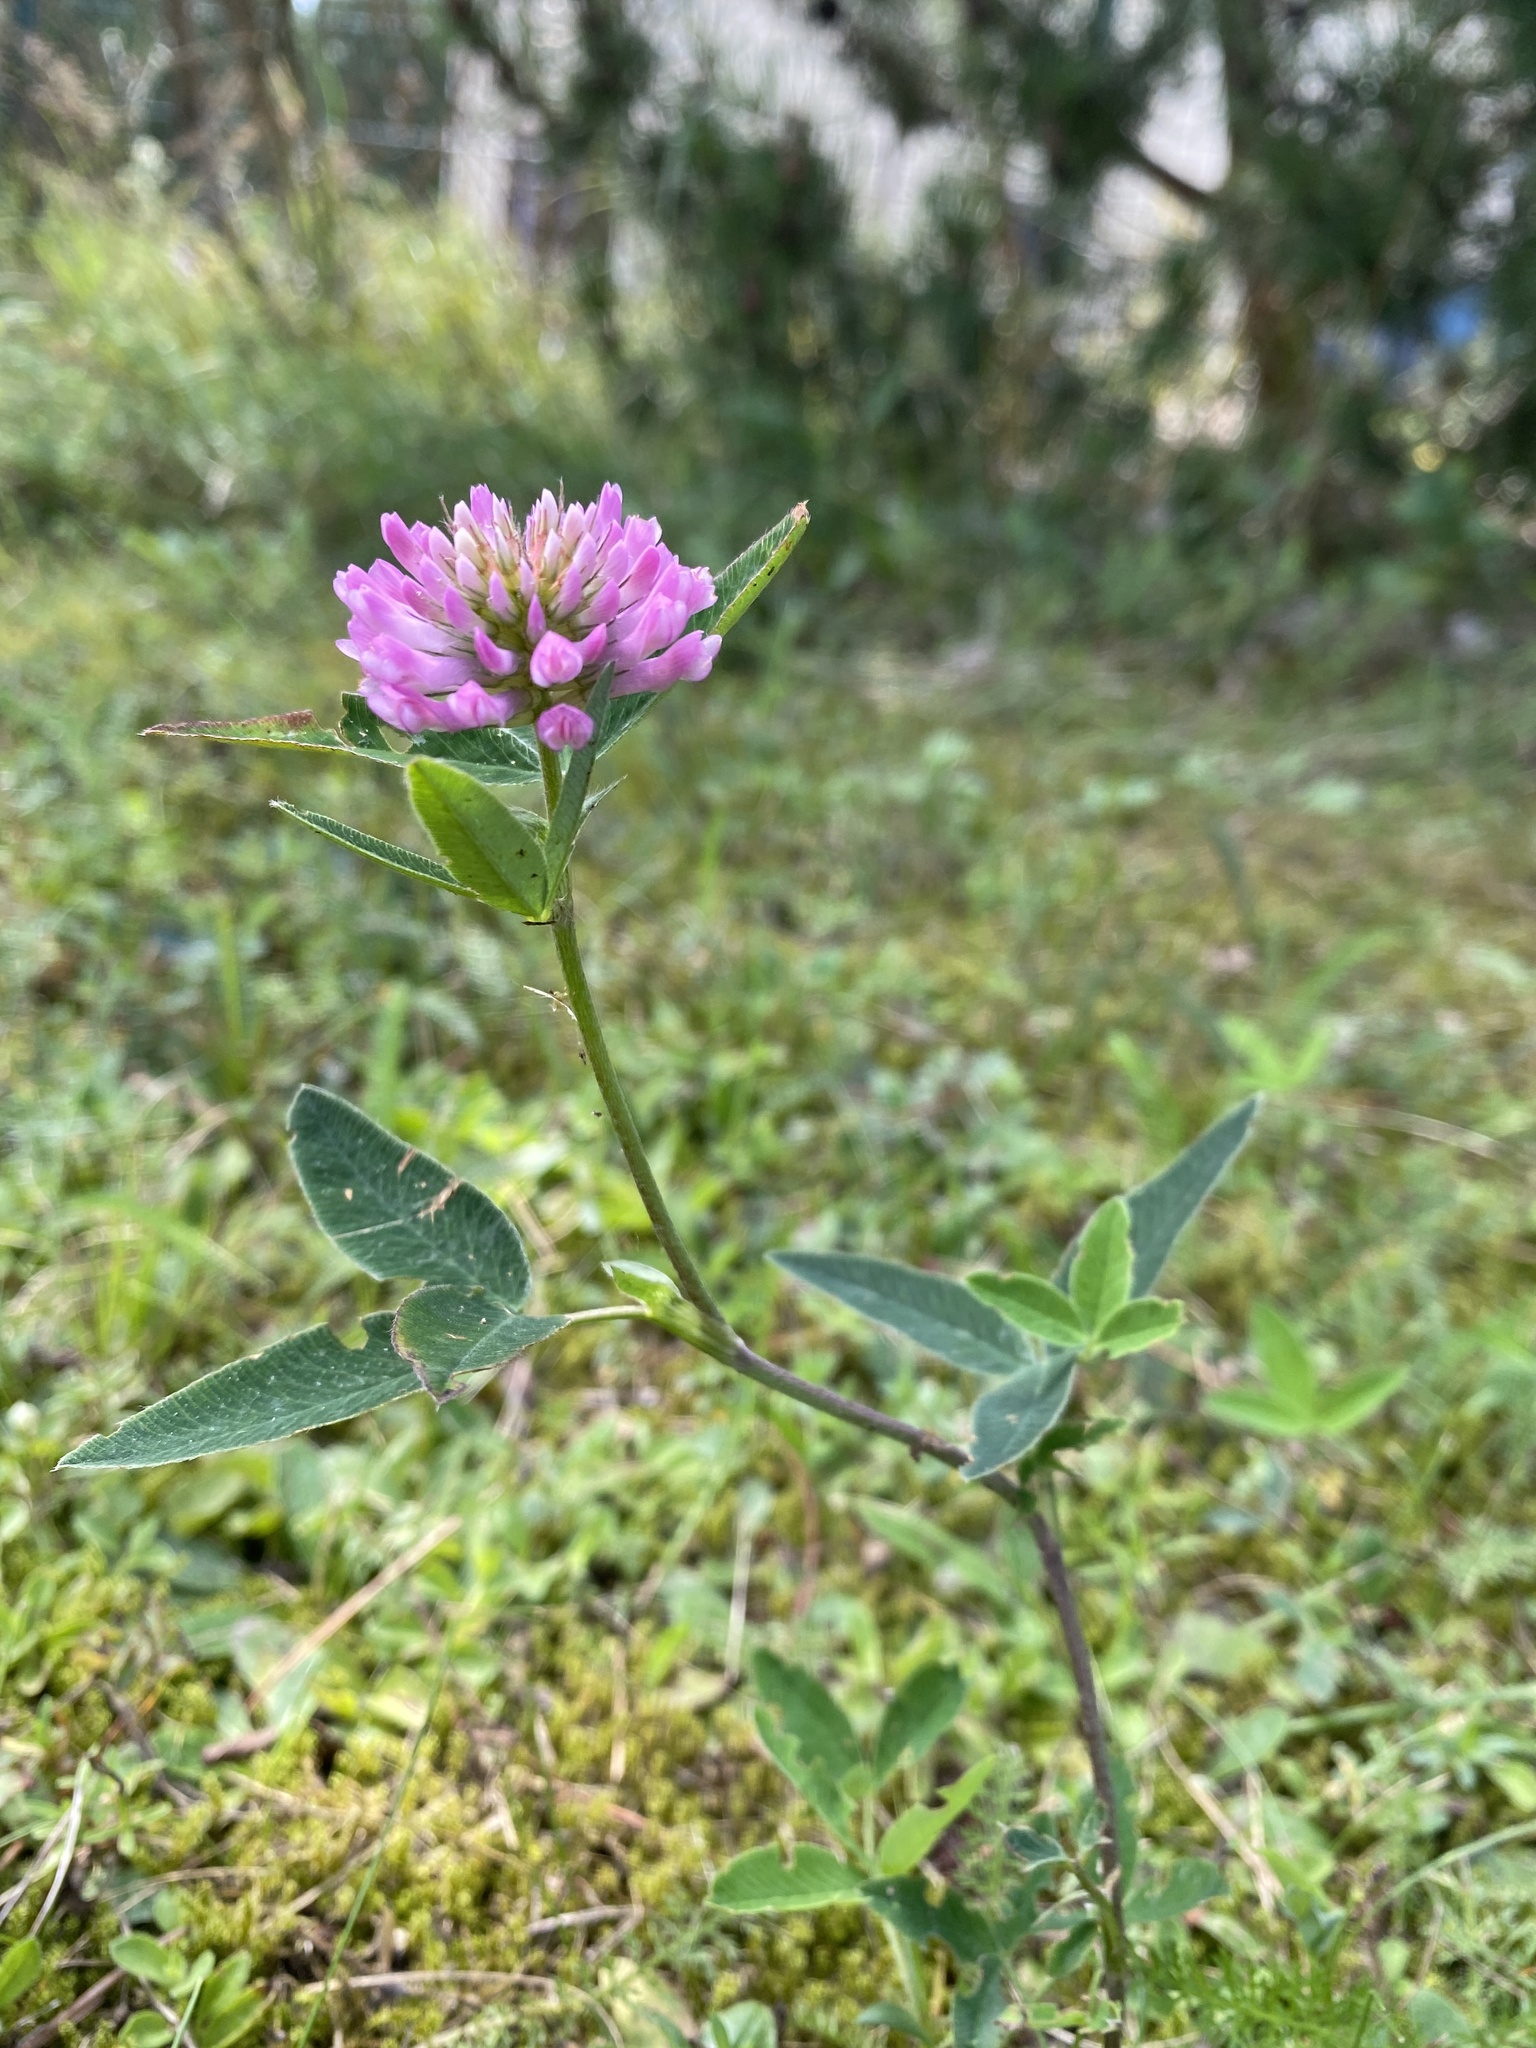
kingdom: Plantae
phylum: Tracheophyta
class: Magnoliopsida
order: Fabales
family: Fabaceae
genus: Trifolium
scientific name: Trifolium medium
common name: Zigzag clover
